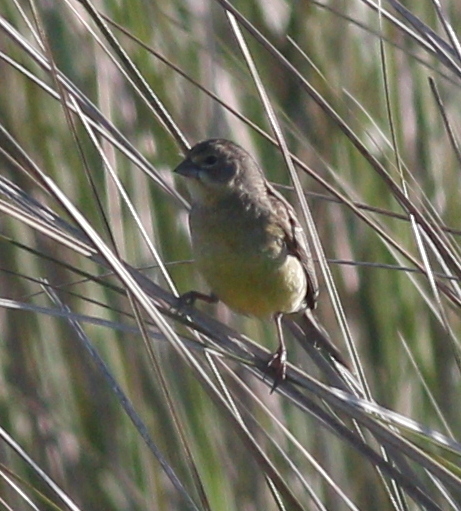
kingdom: Animalia
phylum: Chordata
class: Aves
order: Passeriformes
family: Thraupidae
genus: Sicalis
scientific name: Sicalis luteola
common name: Grassland yellow-finch
